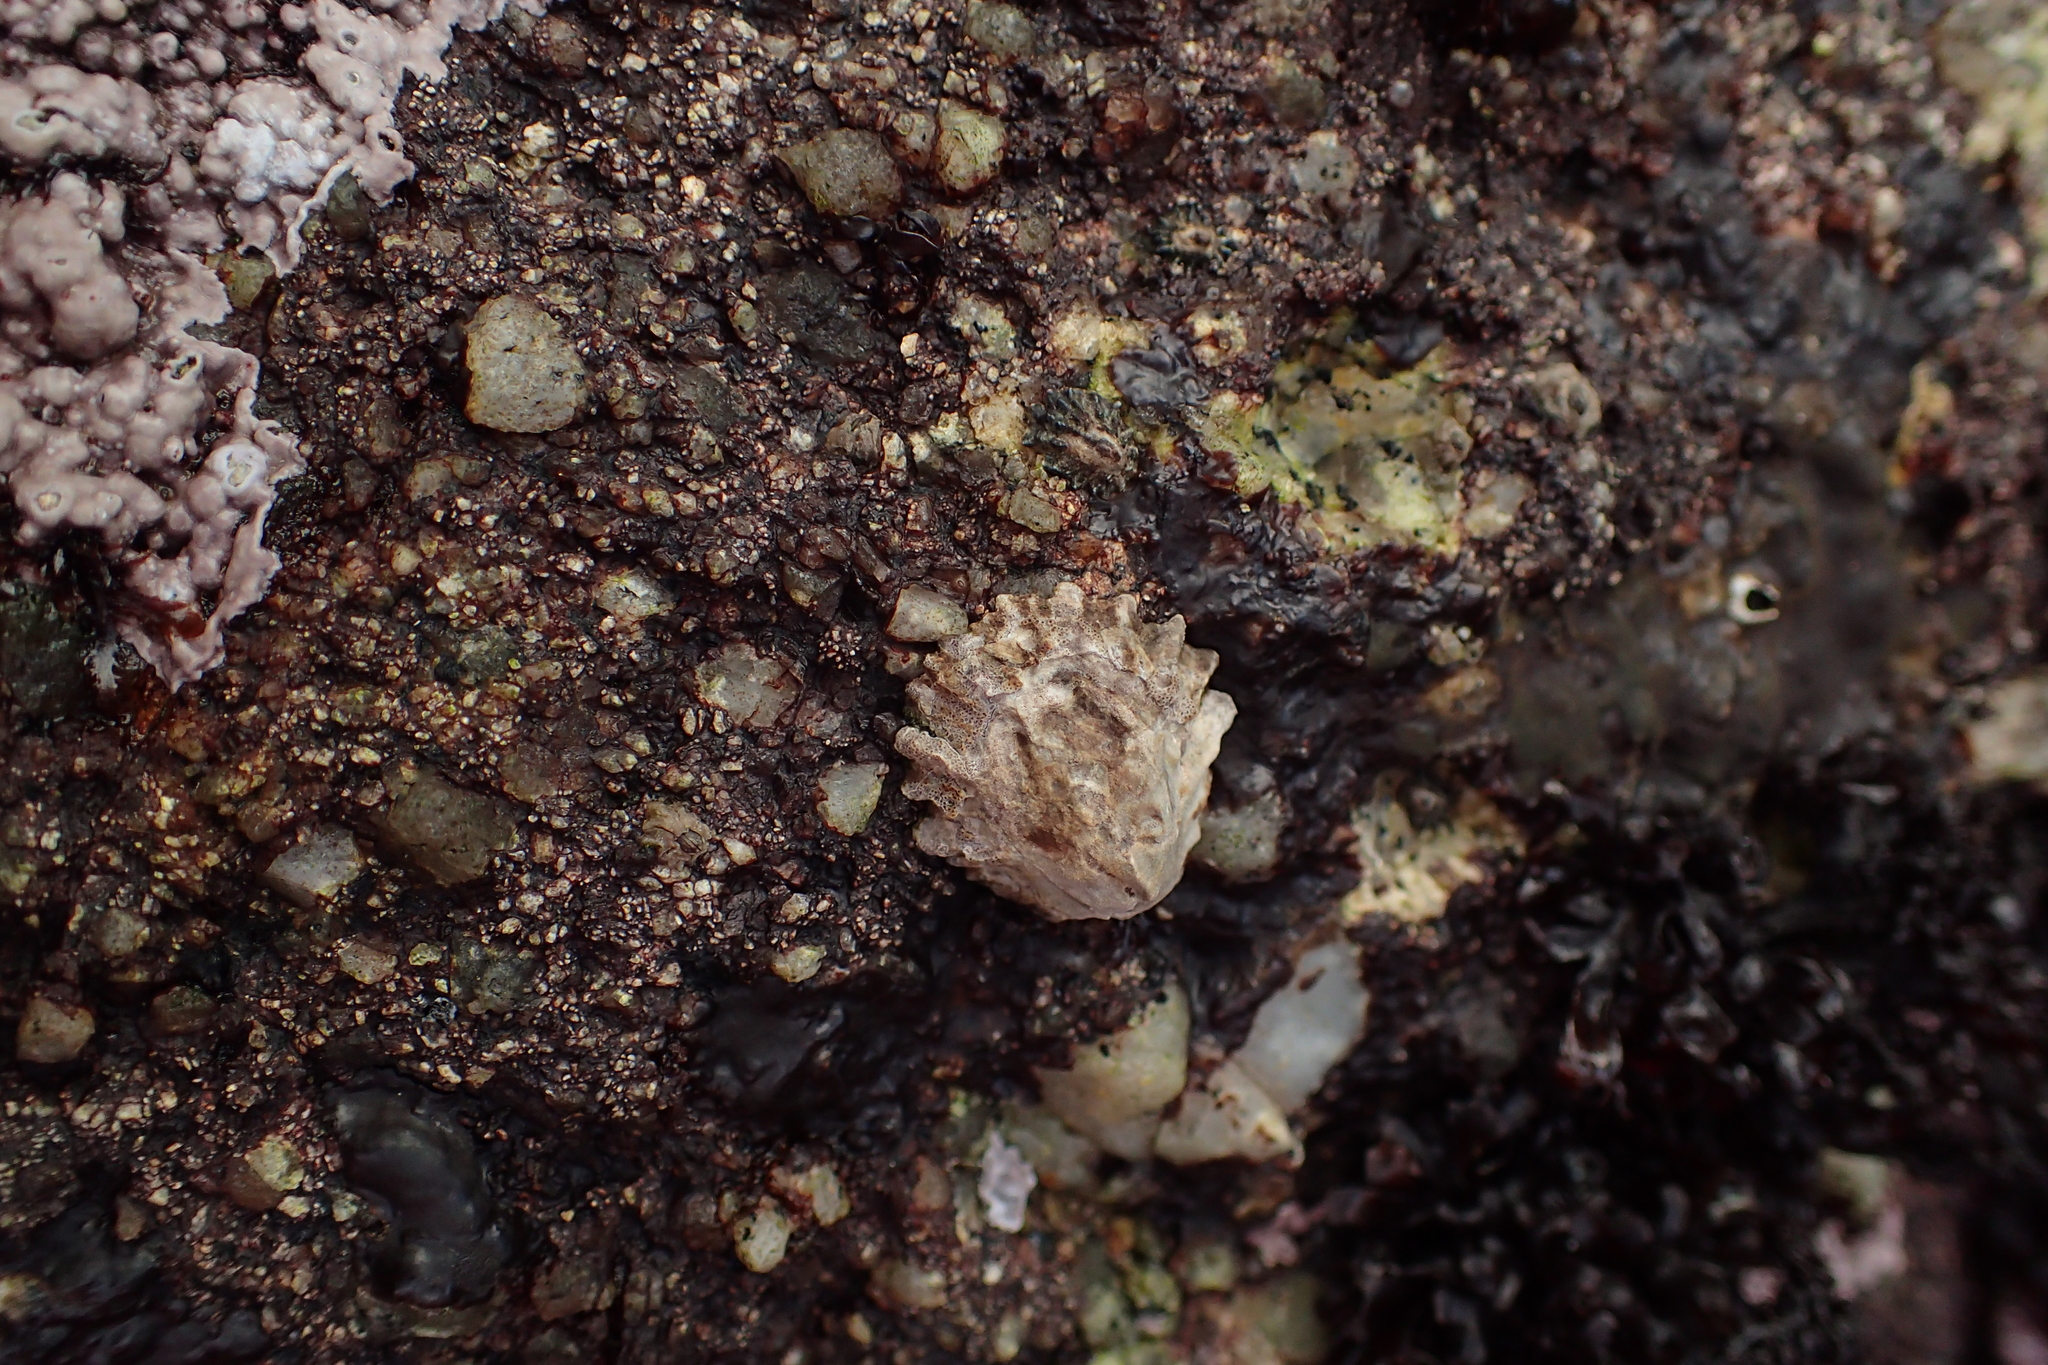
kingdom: Animalia
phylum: Mollusca
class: Gastropoda
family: Lottiidae
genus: Lottia
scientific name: Lottia scabra
